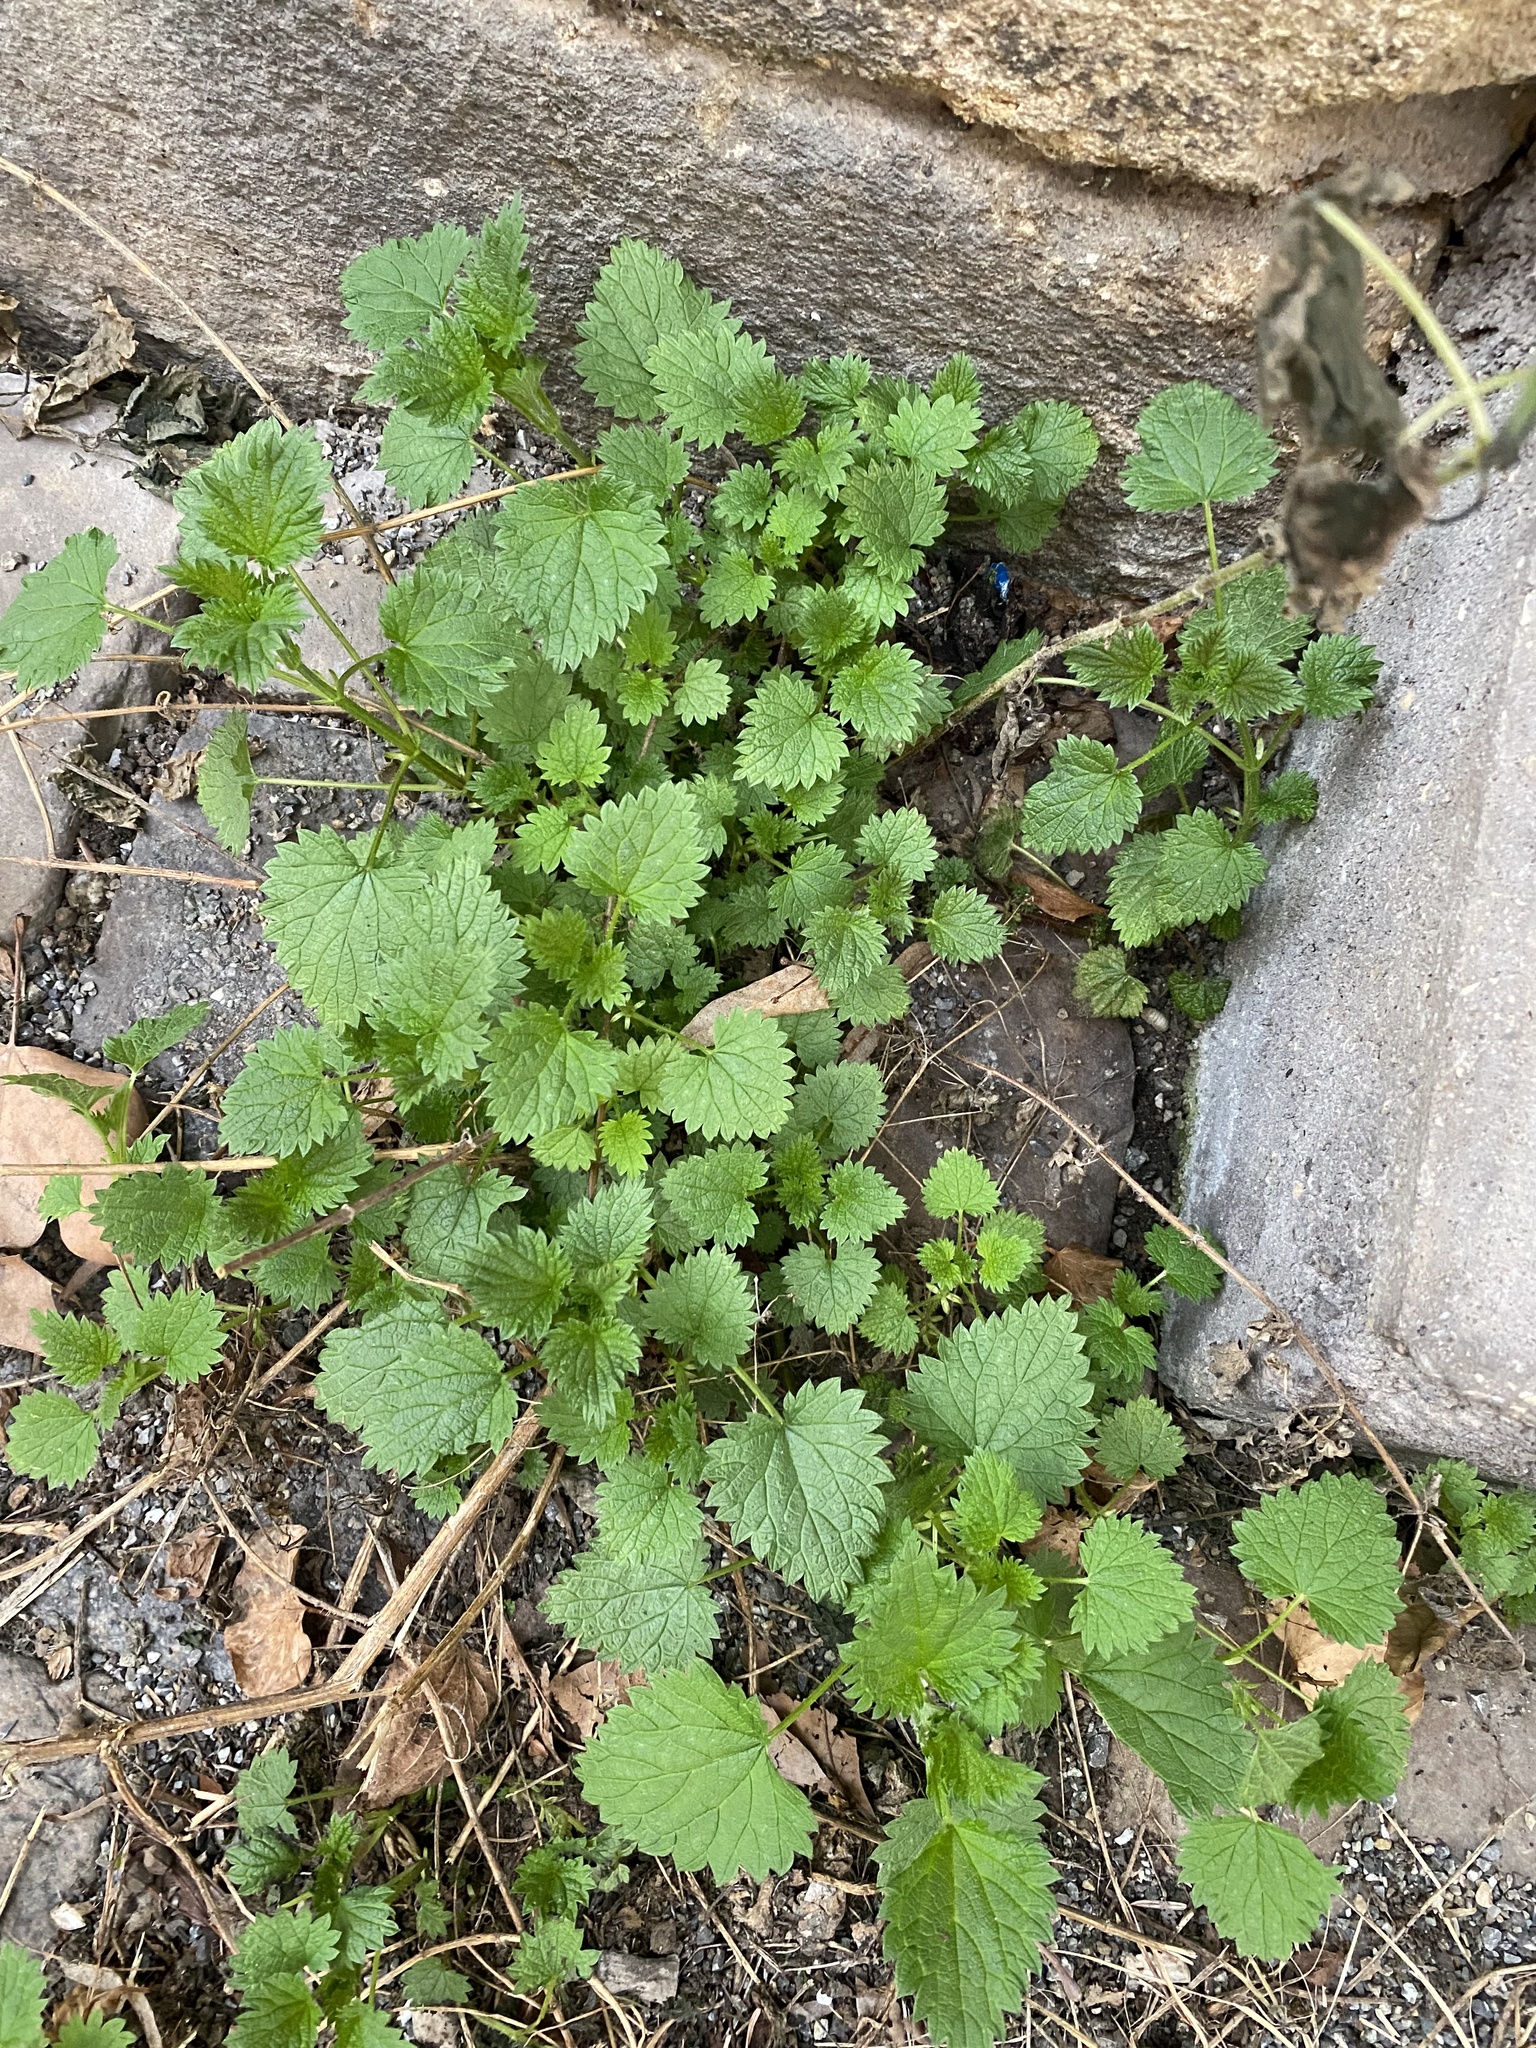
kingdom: Plantae
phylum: Tracheophyta
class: Magnoliopsida
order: Rosales
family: Urticaceae
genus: Urtica
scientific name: Urtica dioica
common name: Common nettle
